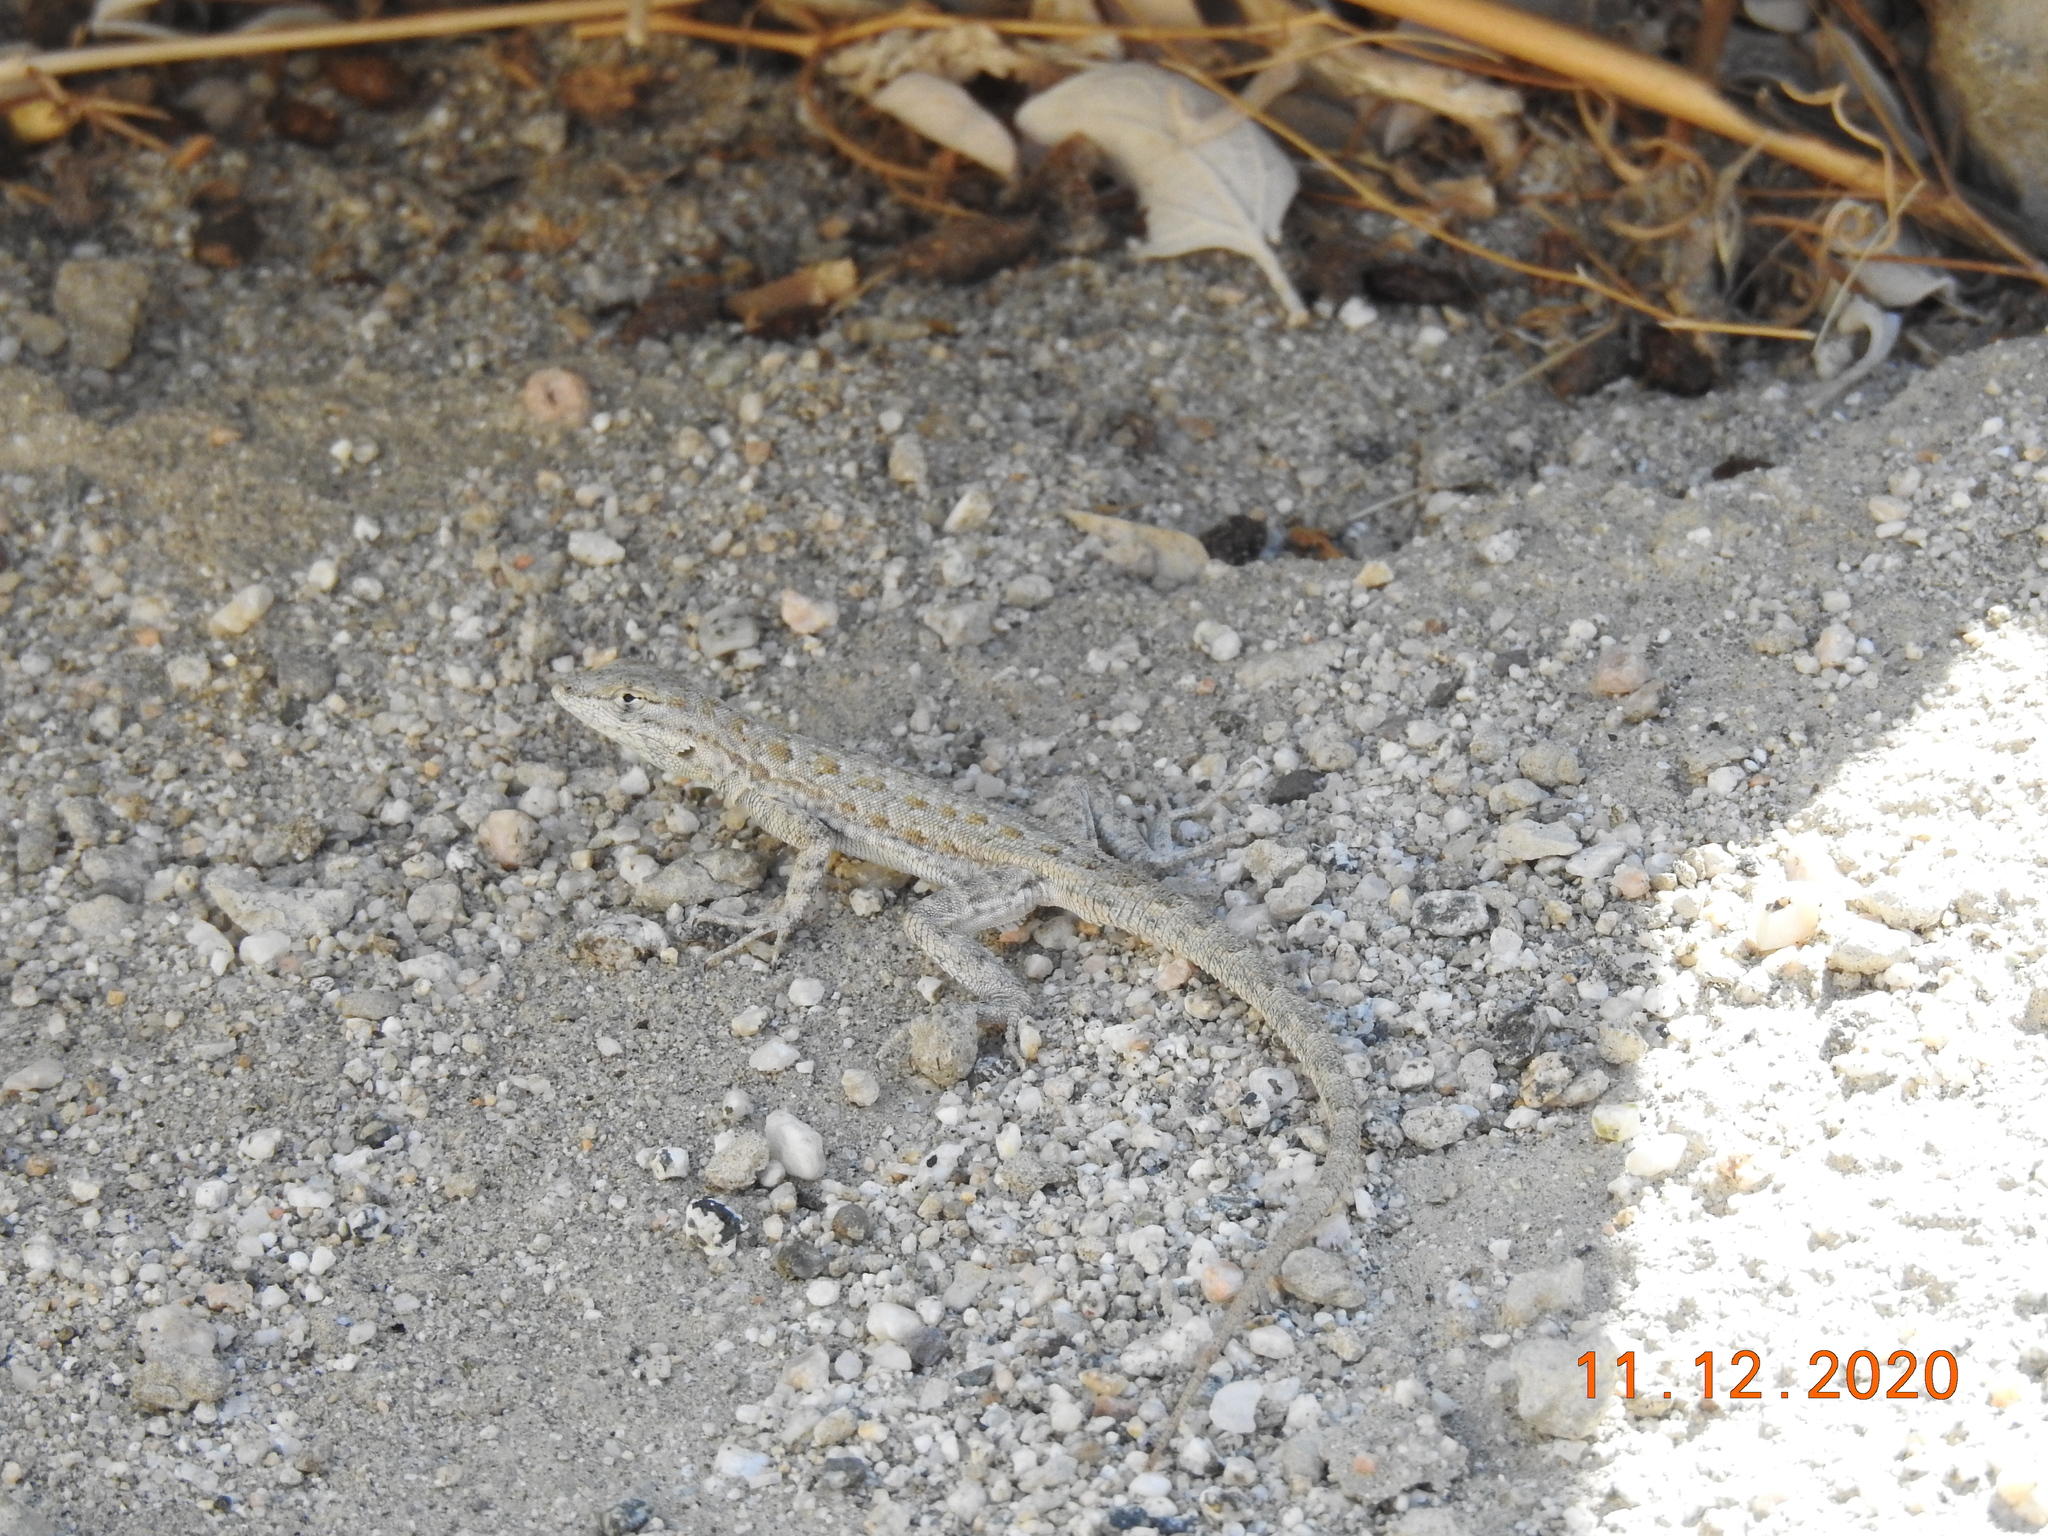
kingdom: Animalia
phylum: Chordata
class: Squamata
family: Phrynosomatidae
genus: Uta
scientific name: Uta stansburiana
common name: Side-blotched lizard
